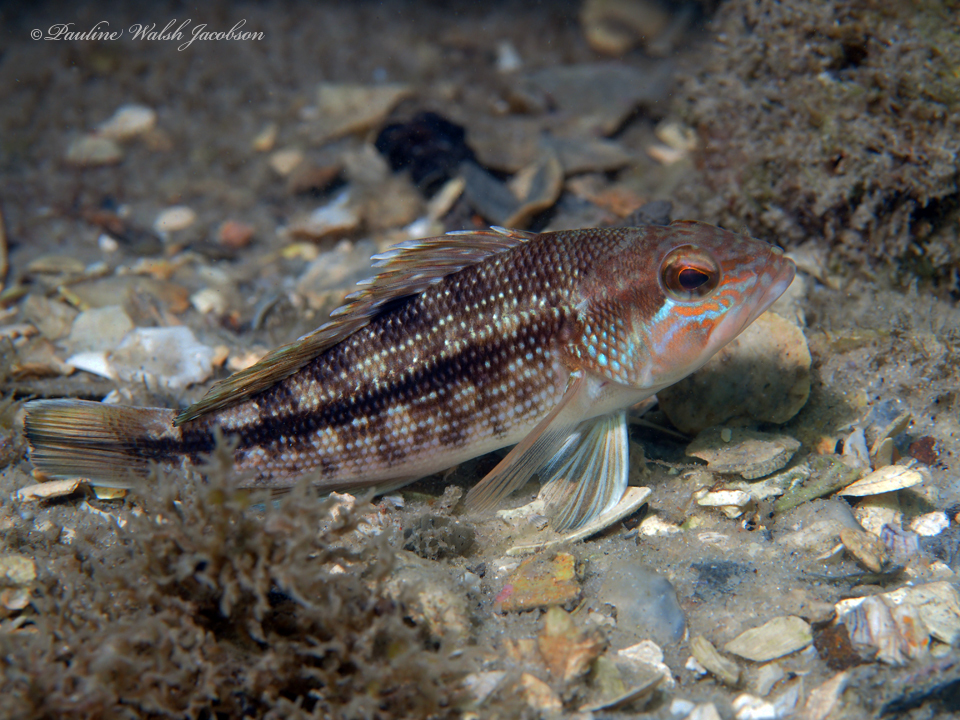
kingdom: Animalia
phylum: Chordata
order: Perciformes
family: Serranidae
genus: Centropristis
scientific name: Centropristis striata
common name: Black sea bass
